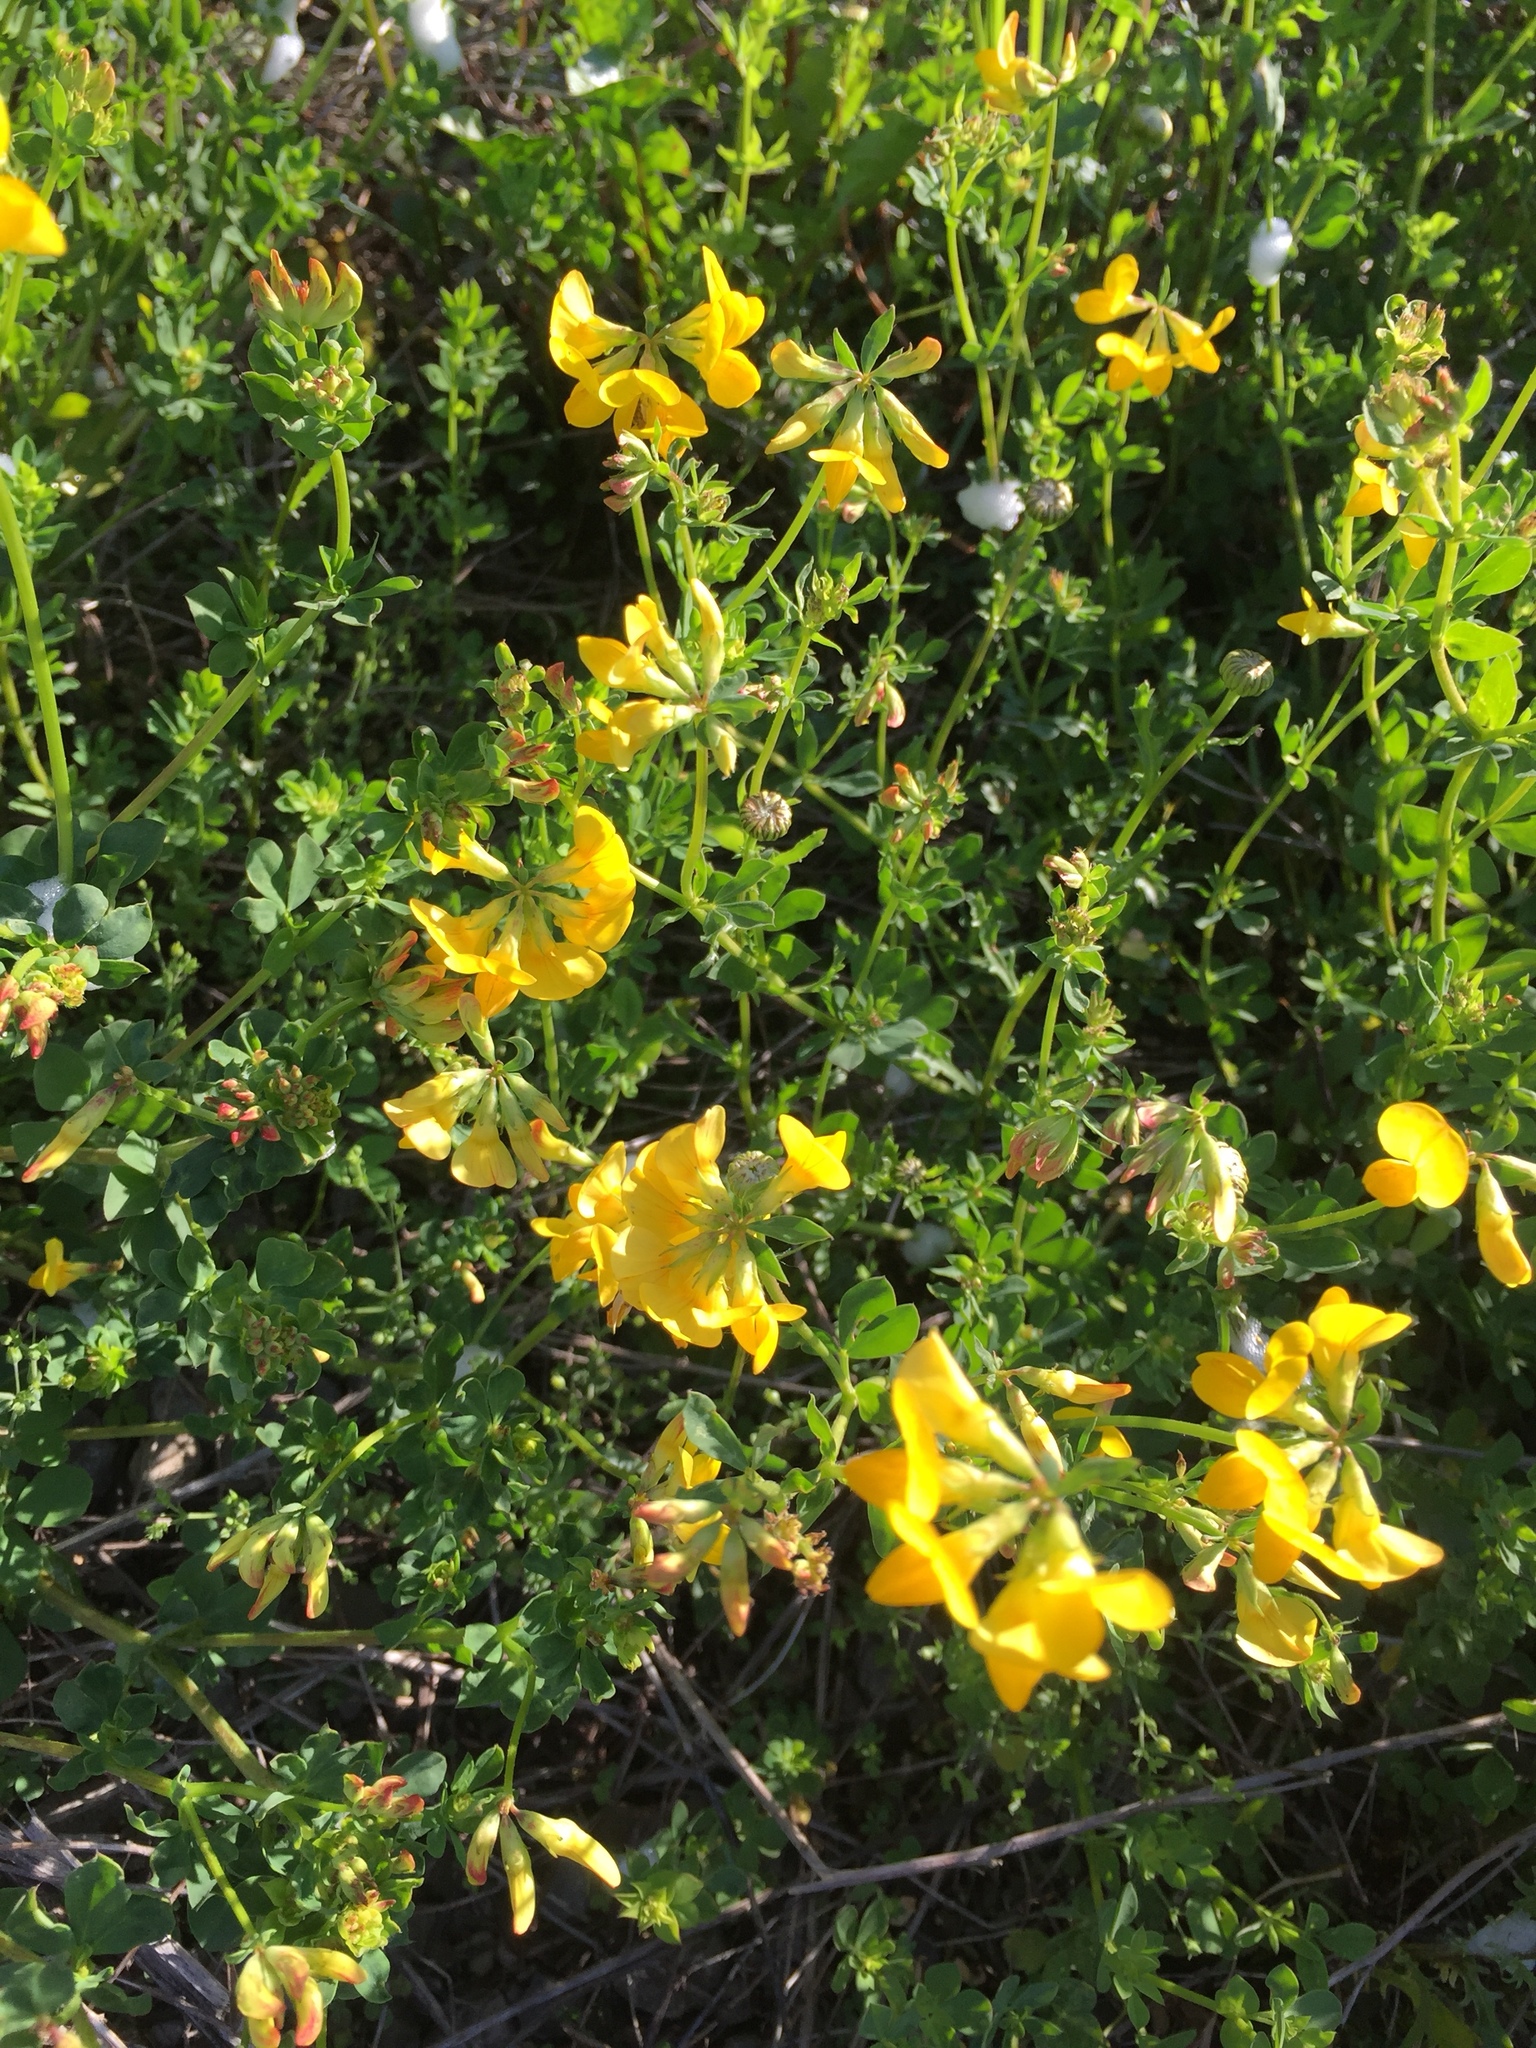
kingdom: Plantae
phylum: Tracheophyta
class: Magnoliopsida
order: Fabales
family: Fabaceae
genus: Lotus
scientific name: Lotus corniculatus
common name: Common bird's-foot-trefoil
